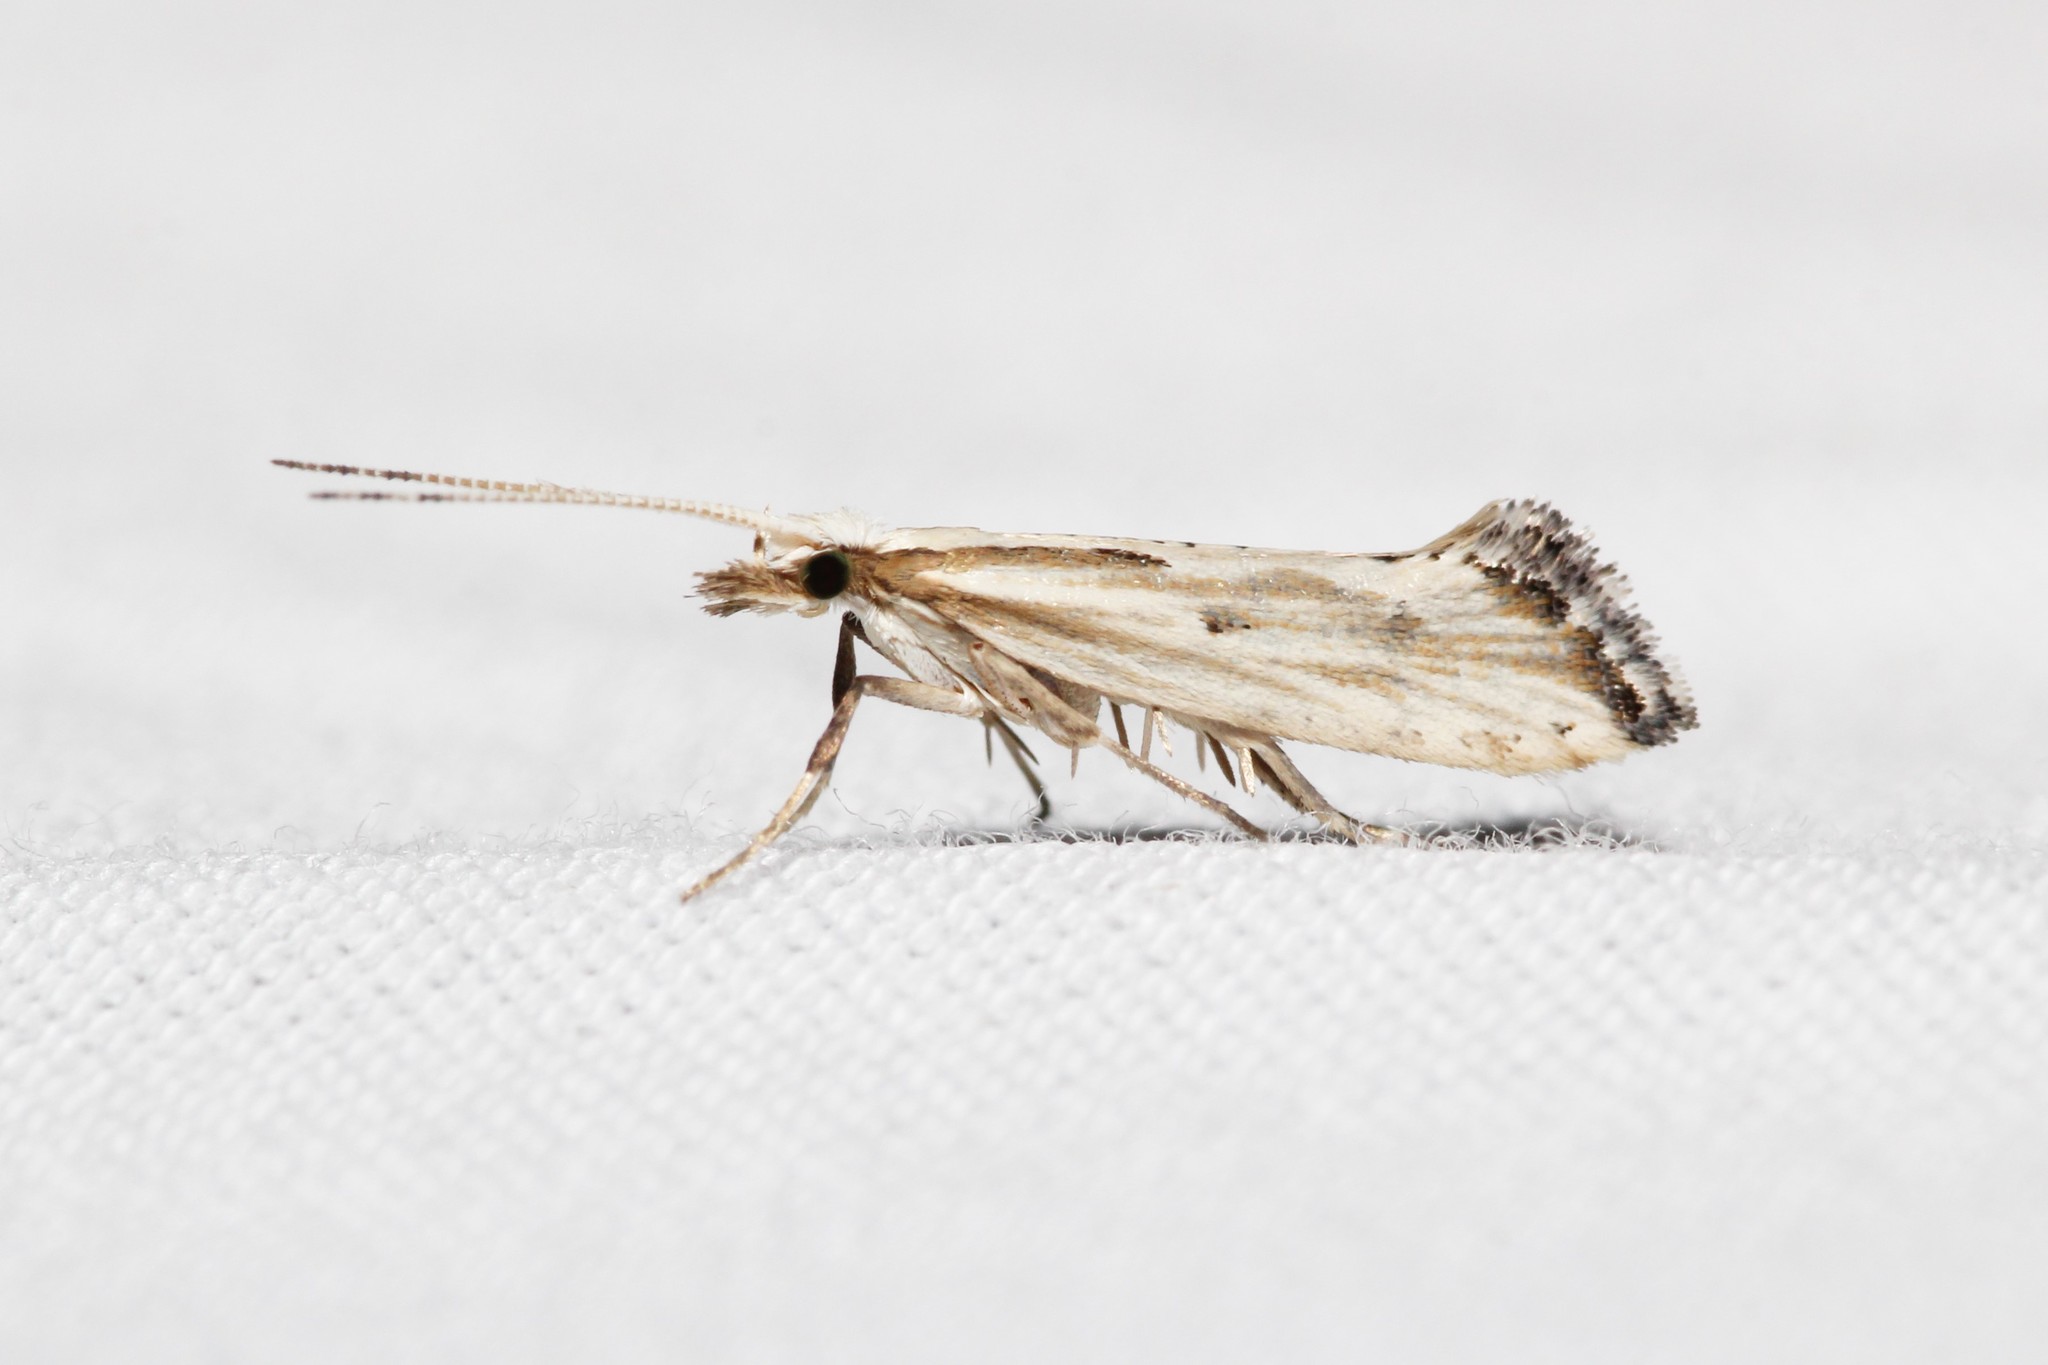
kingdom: Animalia
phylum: Arthropoda
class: Insecta
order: Lepidoptera
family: Plutellidae
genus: Plutella
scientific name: Plutella porrectella
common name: Dame's rocket moth
